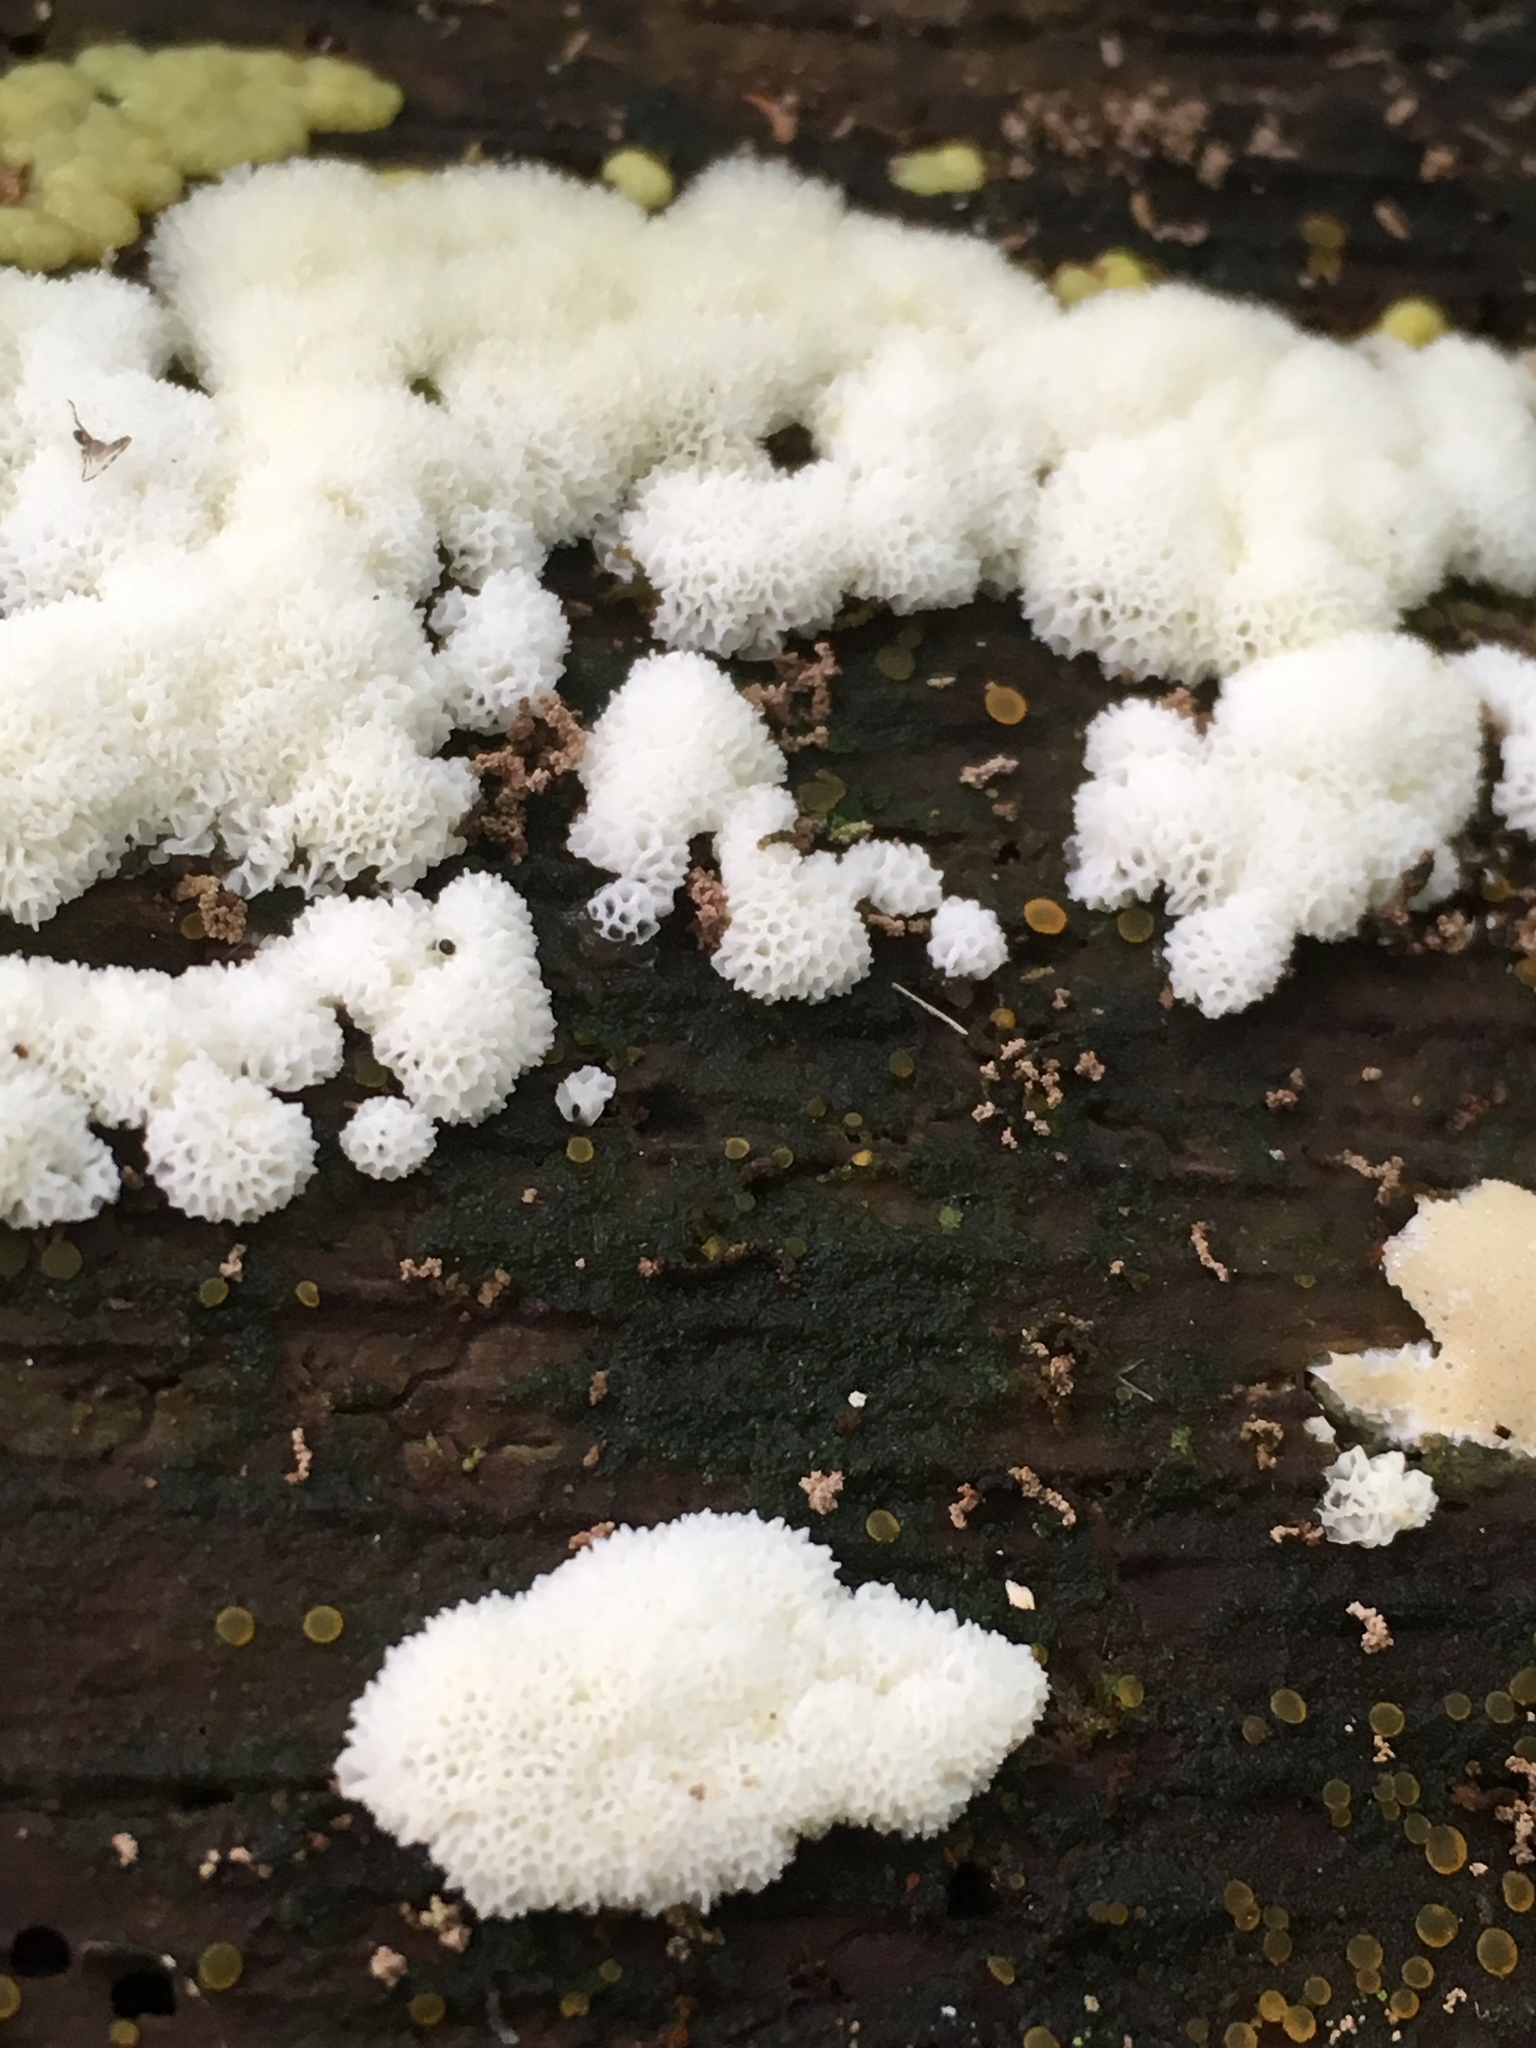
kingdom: Protozoa
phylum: Mycetozoa
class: Protosteliomycetes
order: Ceratiomyxales
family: Ceratiomyxaceae
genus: Ceratiomyxa
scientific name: Ceratiomyxa fruticulosa
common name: Honeycomb coral slime mold
